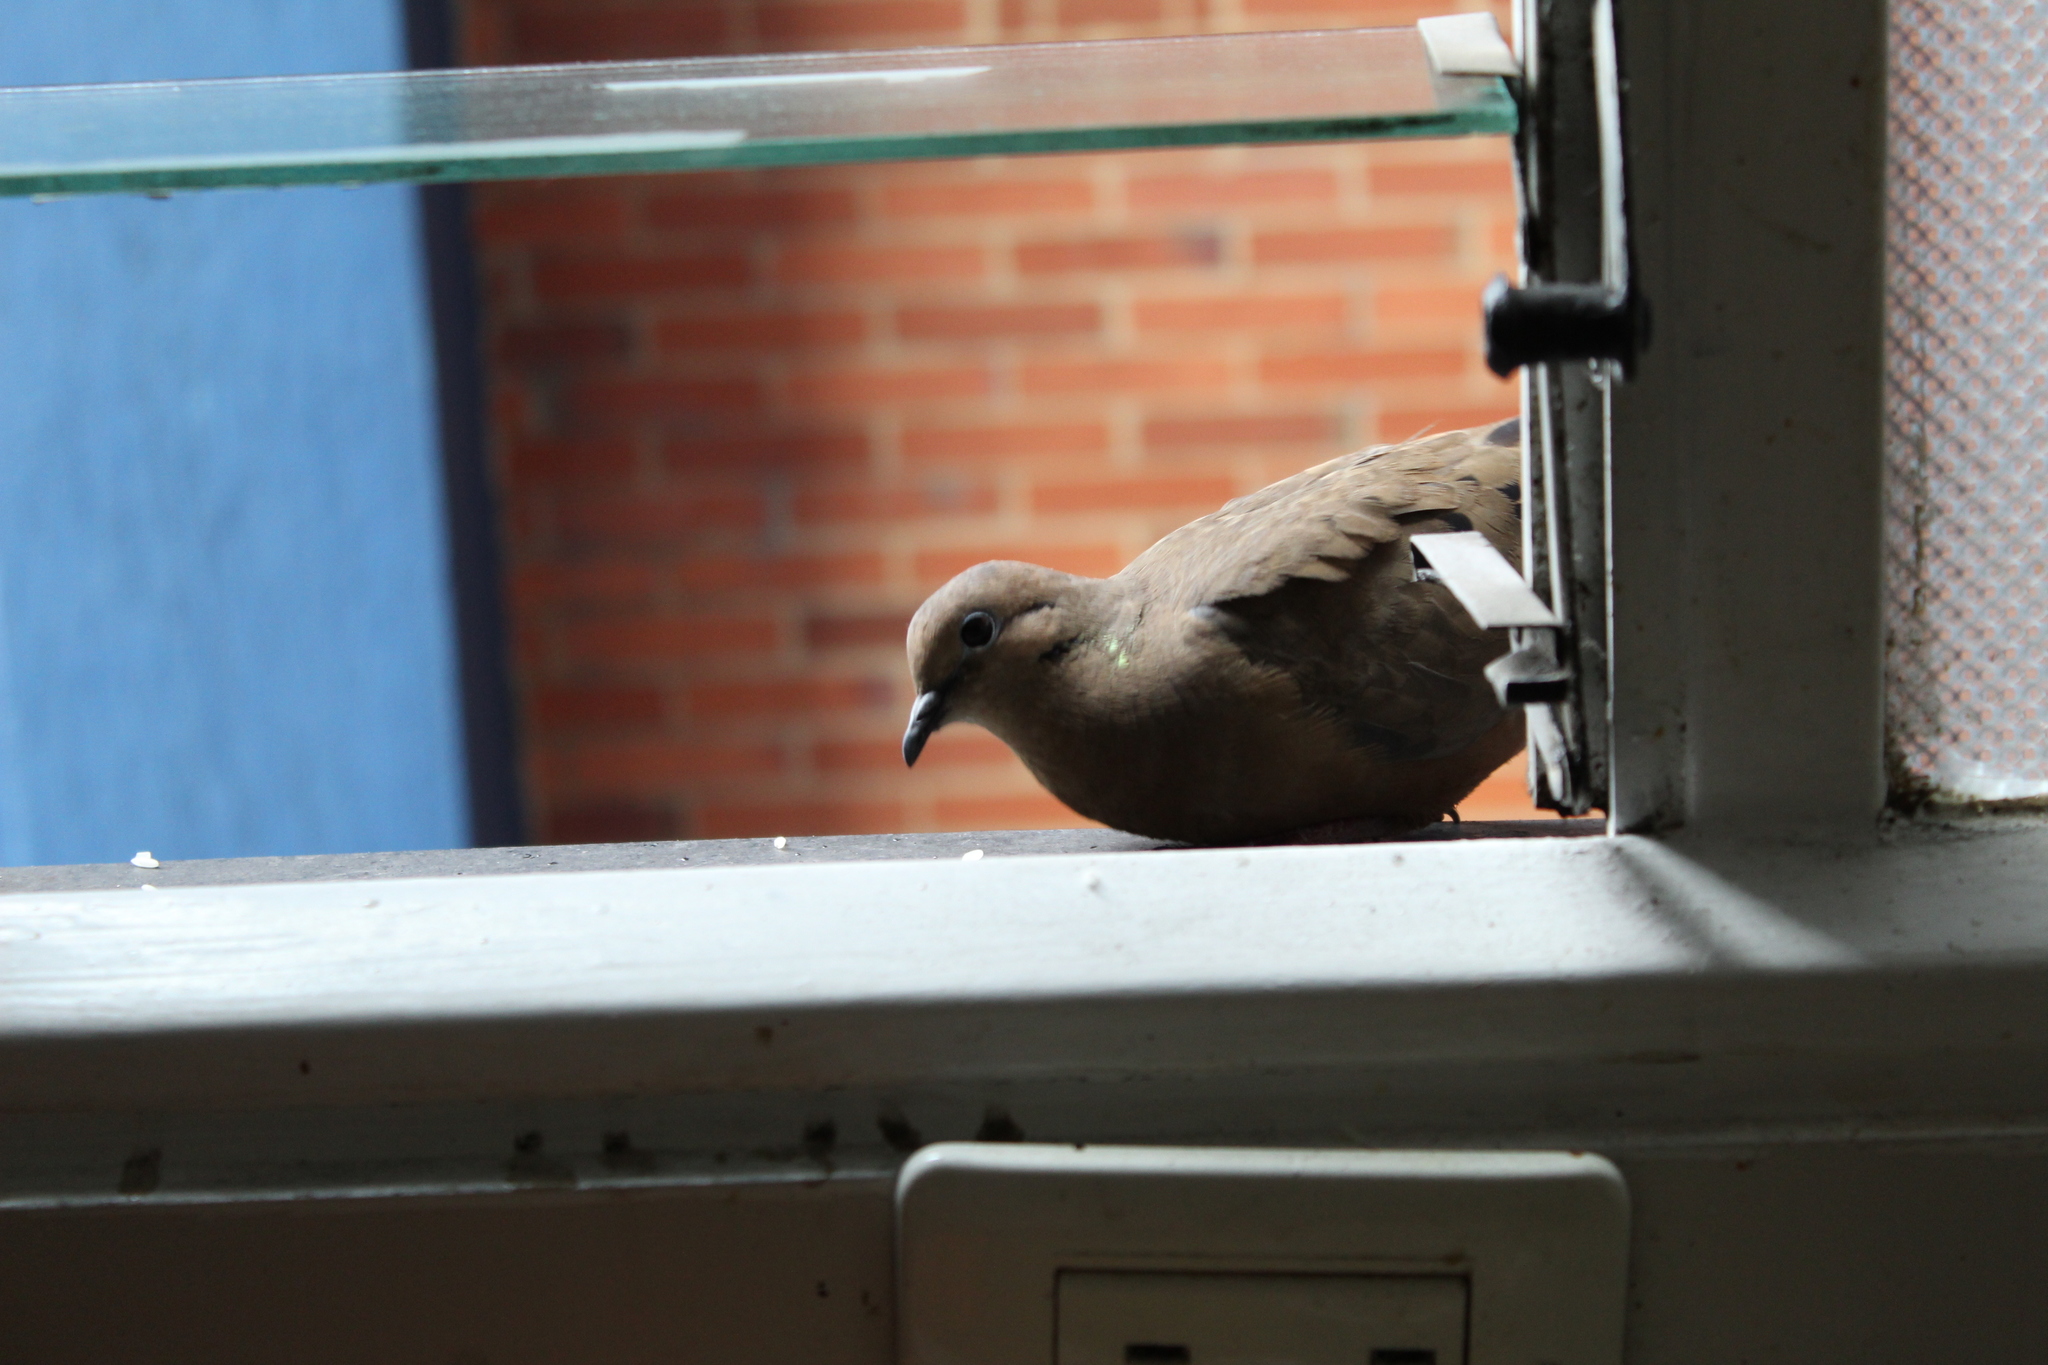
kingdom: Animalia
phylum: Chordata
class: Aves
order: Columbiformes
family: Columbidae
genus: Zenaida
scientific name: Zenaida auriculata
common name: Eared dove
